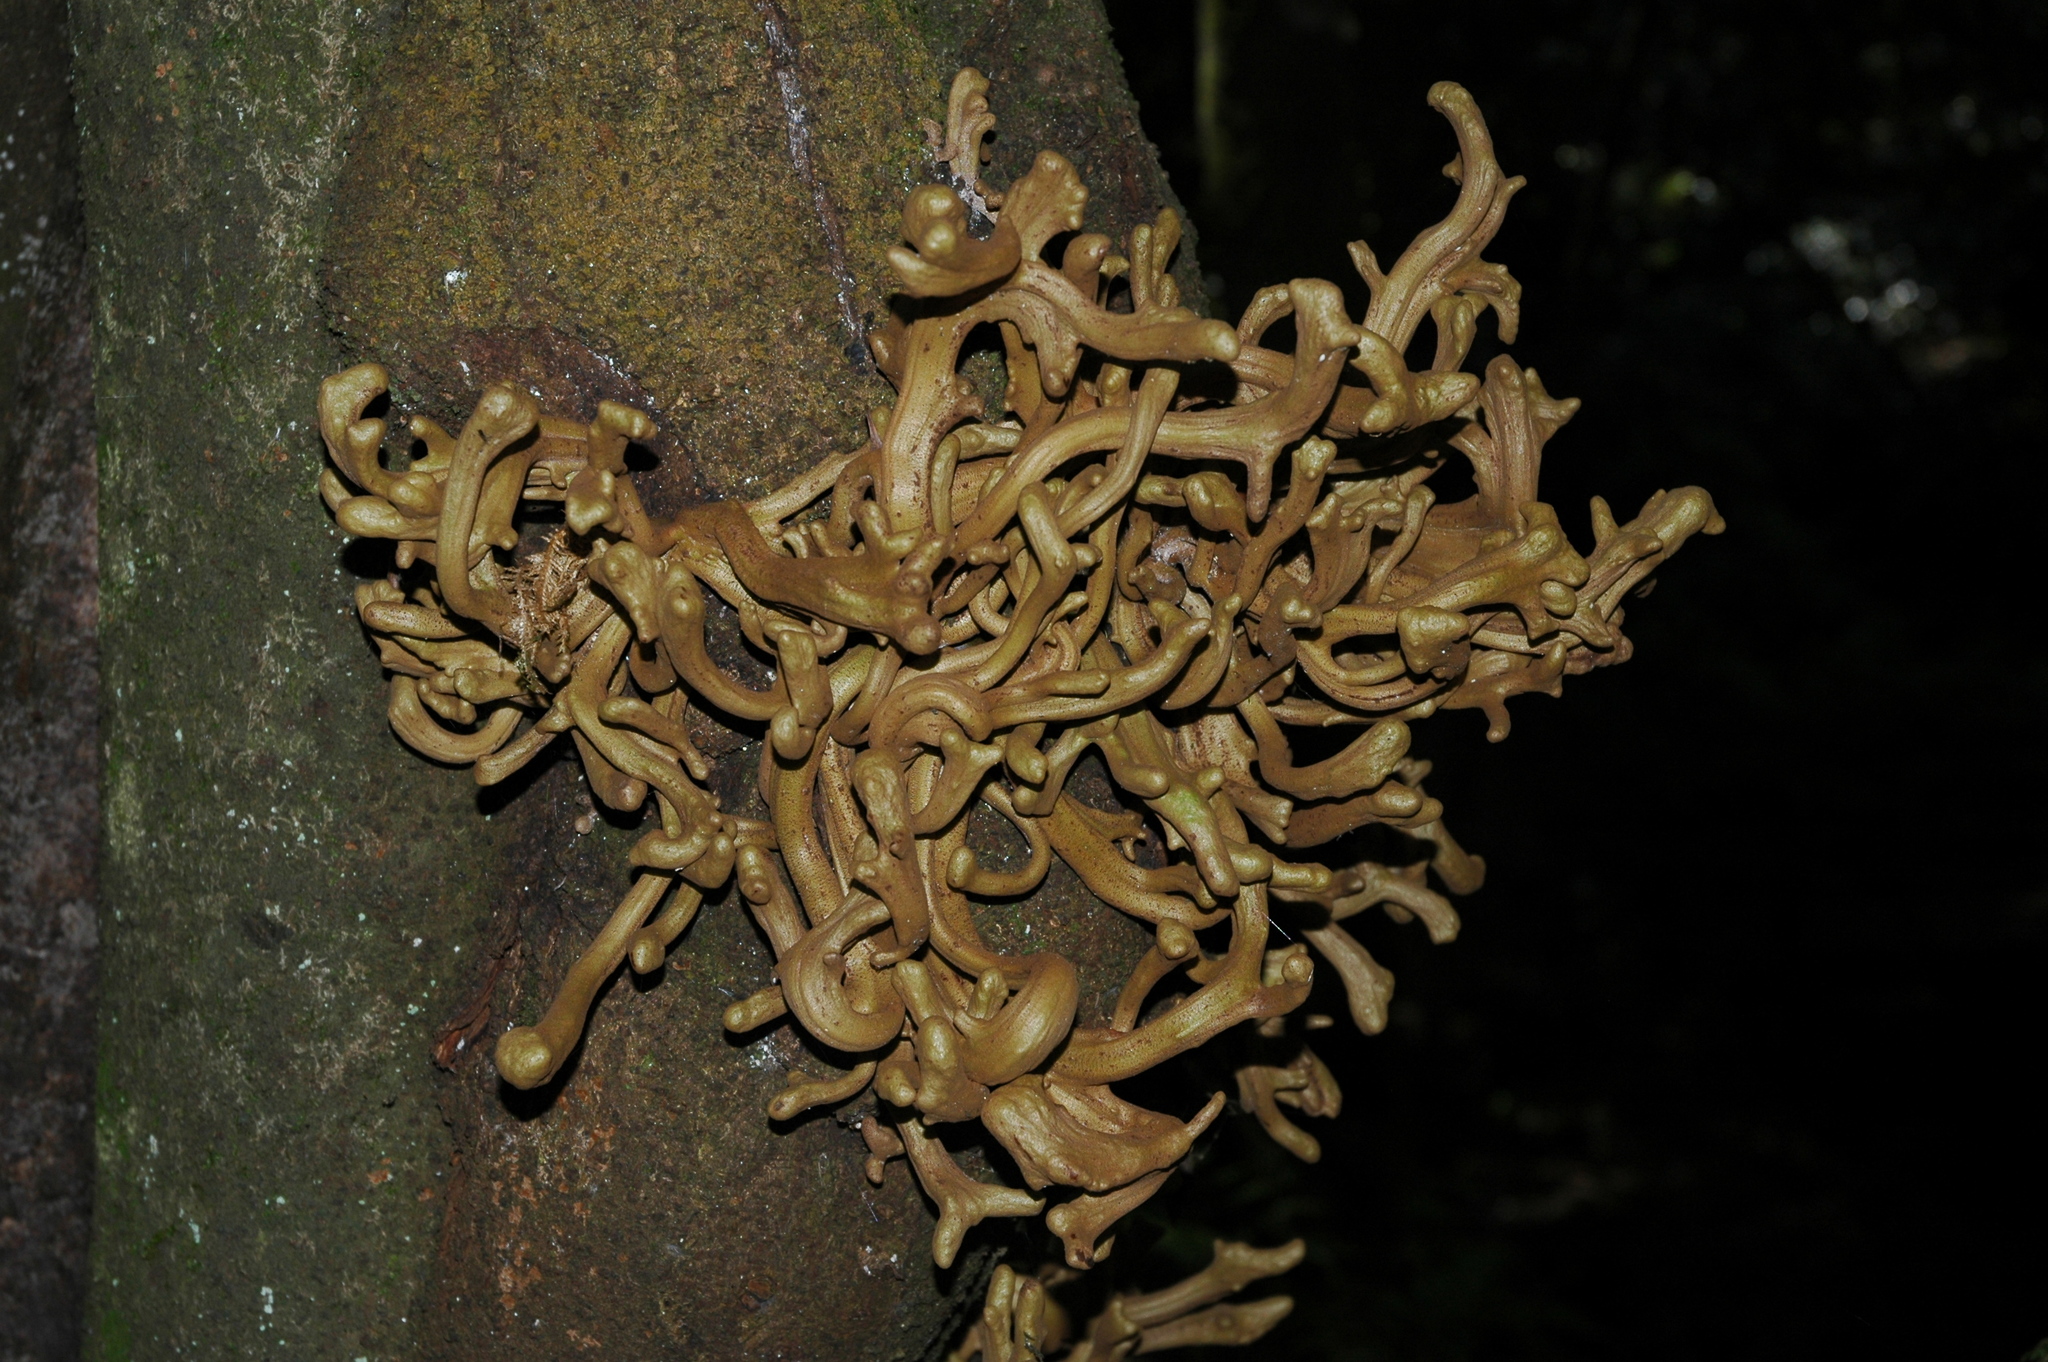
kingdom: Fungi
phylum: Basidiomycota
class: Exobasidiomycetes
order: Exobasidiales
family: Laurobasidiaceae
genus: Laurobasidium
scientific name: Laurobasidium lauri
